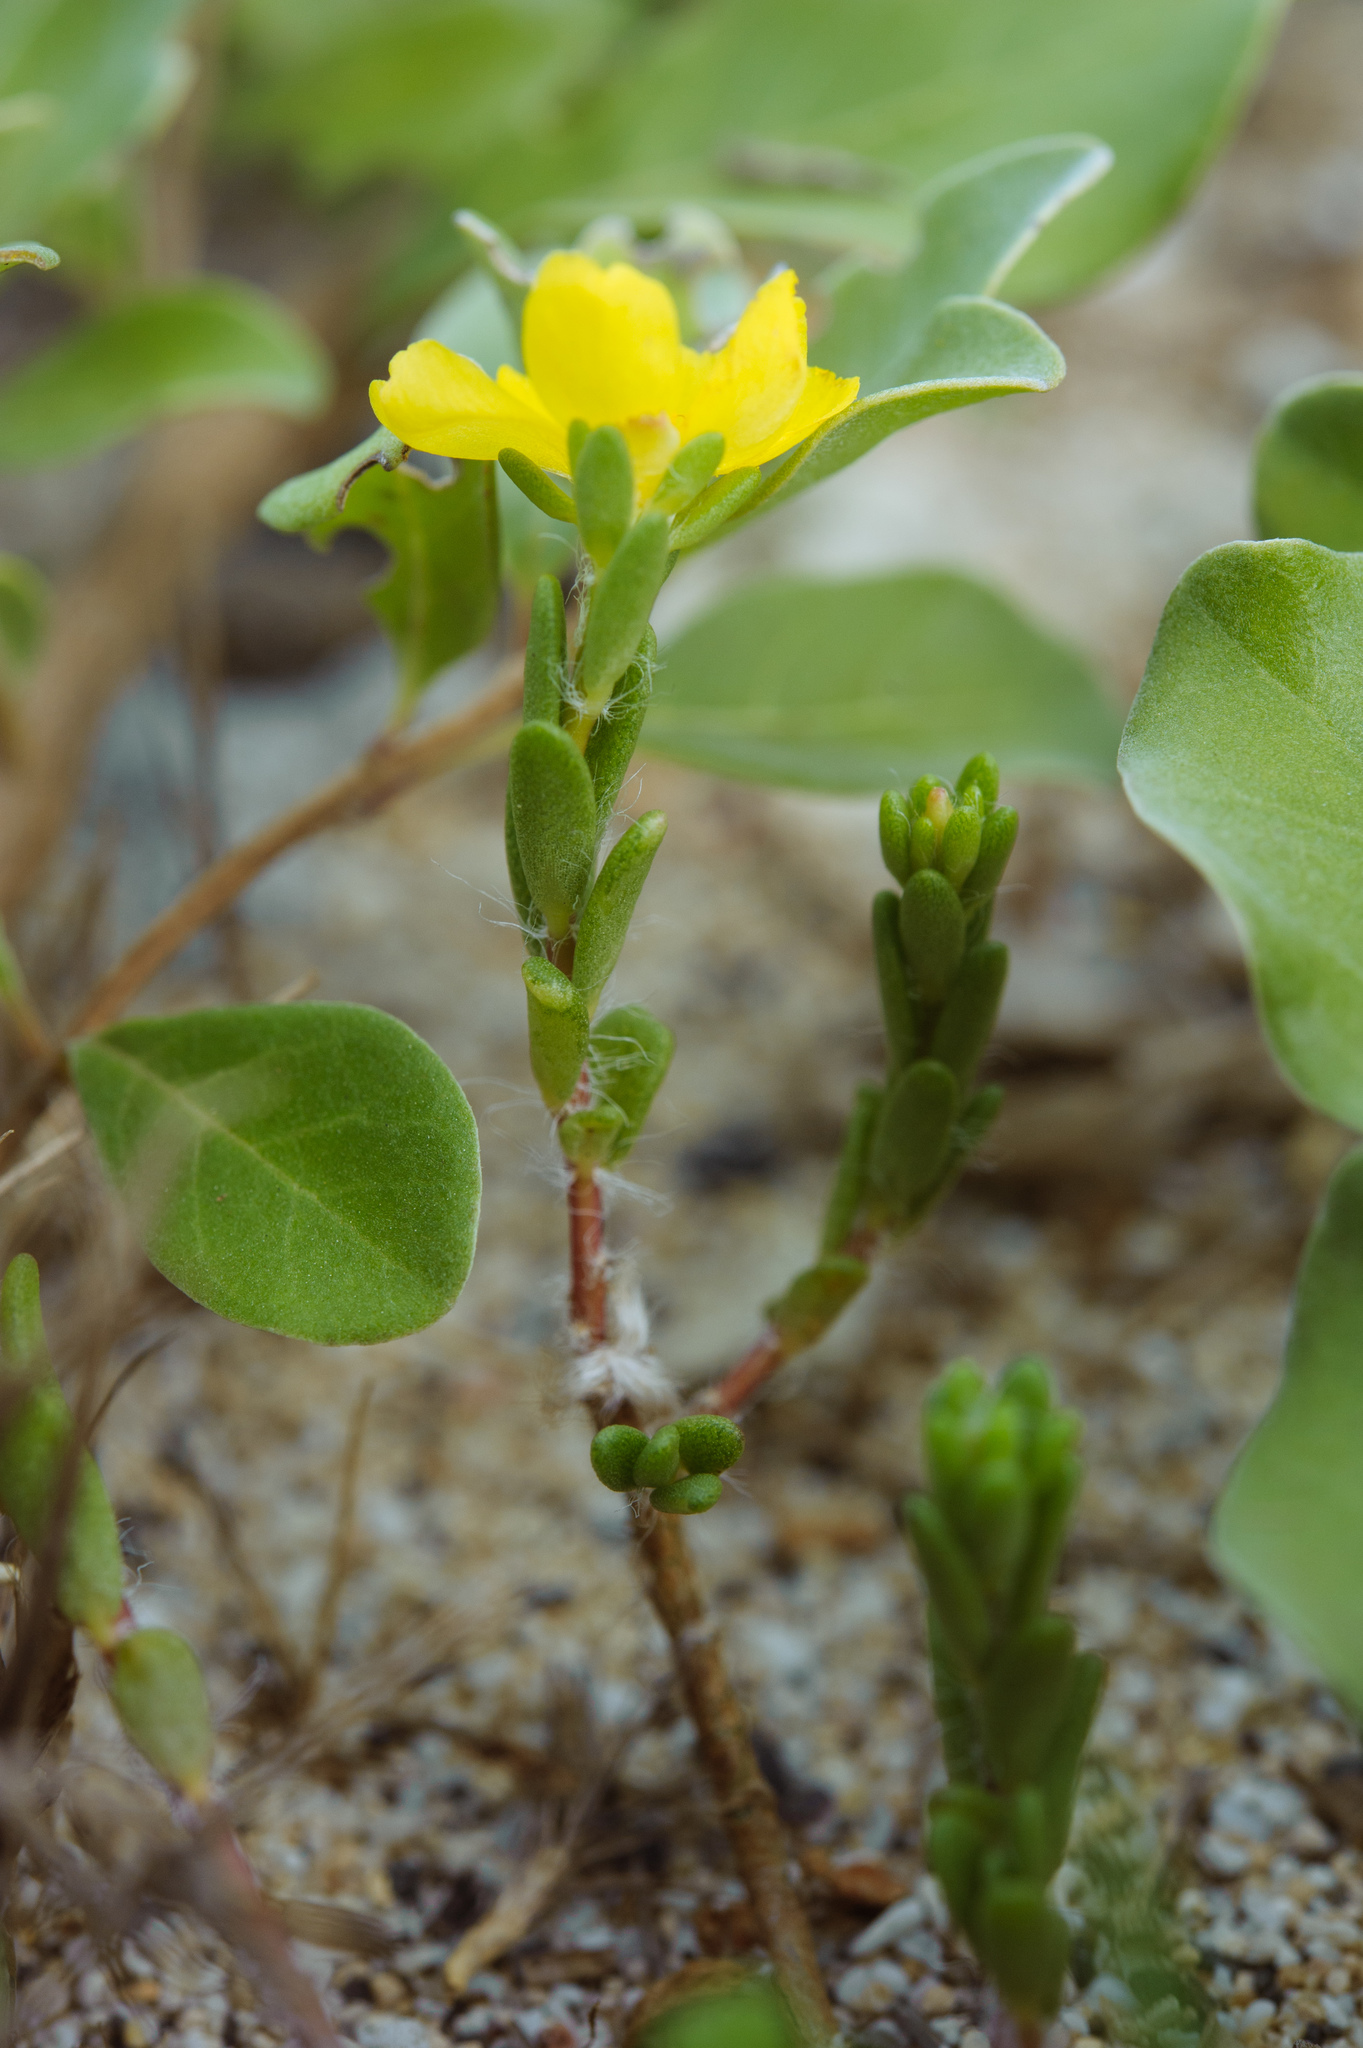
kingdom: Plantae
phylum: Tracheophyta
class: Magnoliopsida
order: Caryophyllales
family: Portulacaceae
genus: Portulaca
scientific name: Portulaca psammotropha
